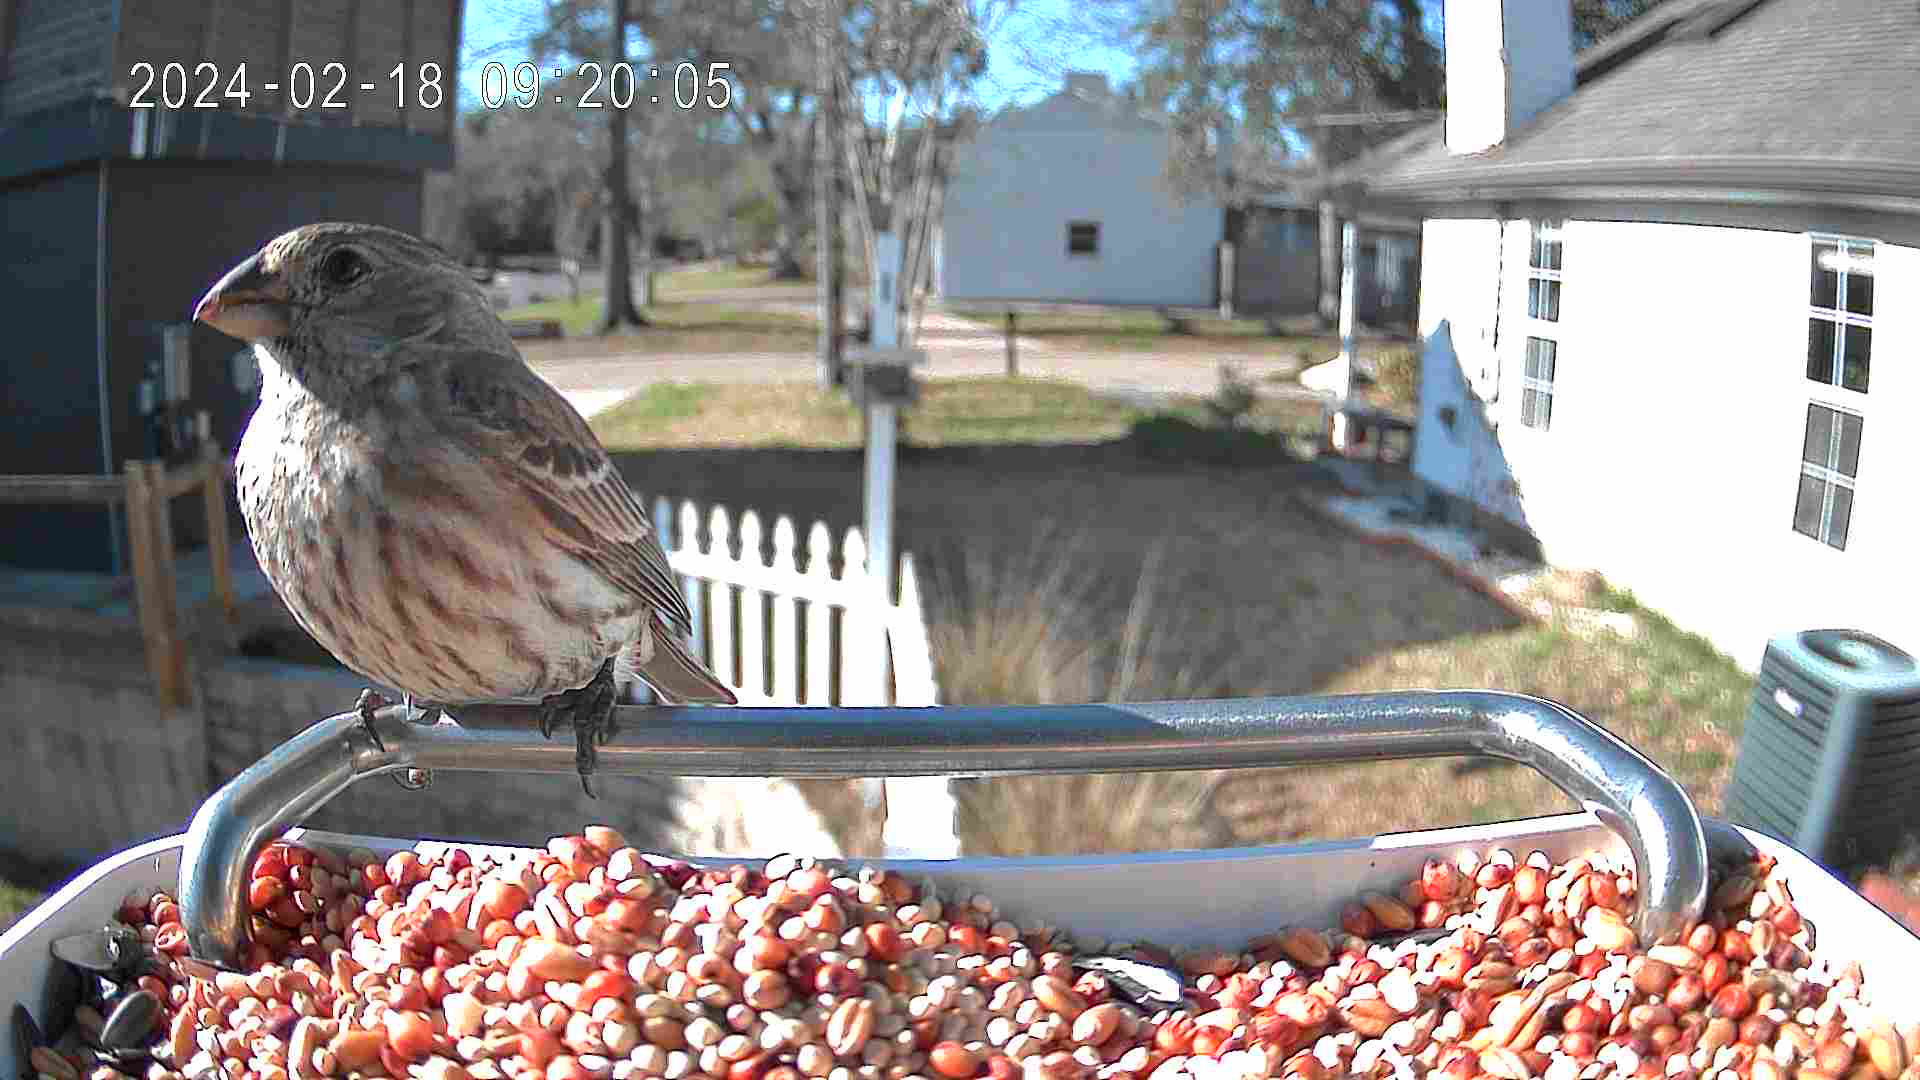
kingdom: Animalia
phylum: Chordata
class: Aves
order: Passeriformes
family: Fringillidae
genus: Haemorhous
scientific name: Haemorhous mexicanus
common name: House finch
